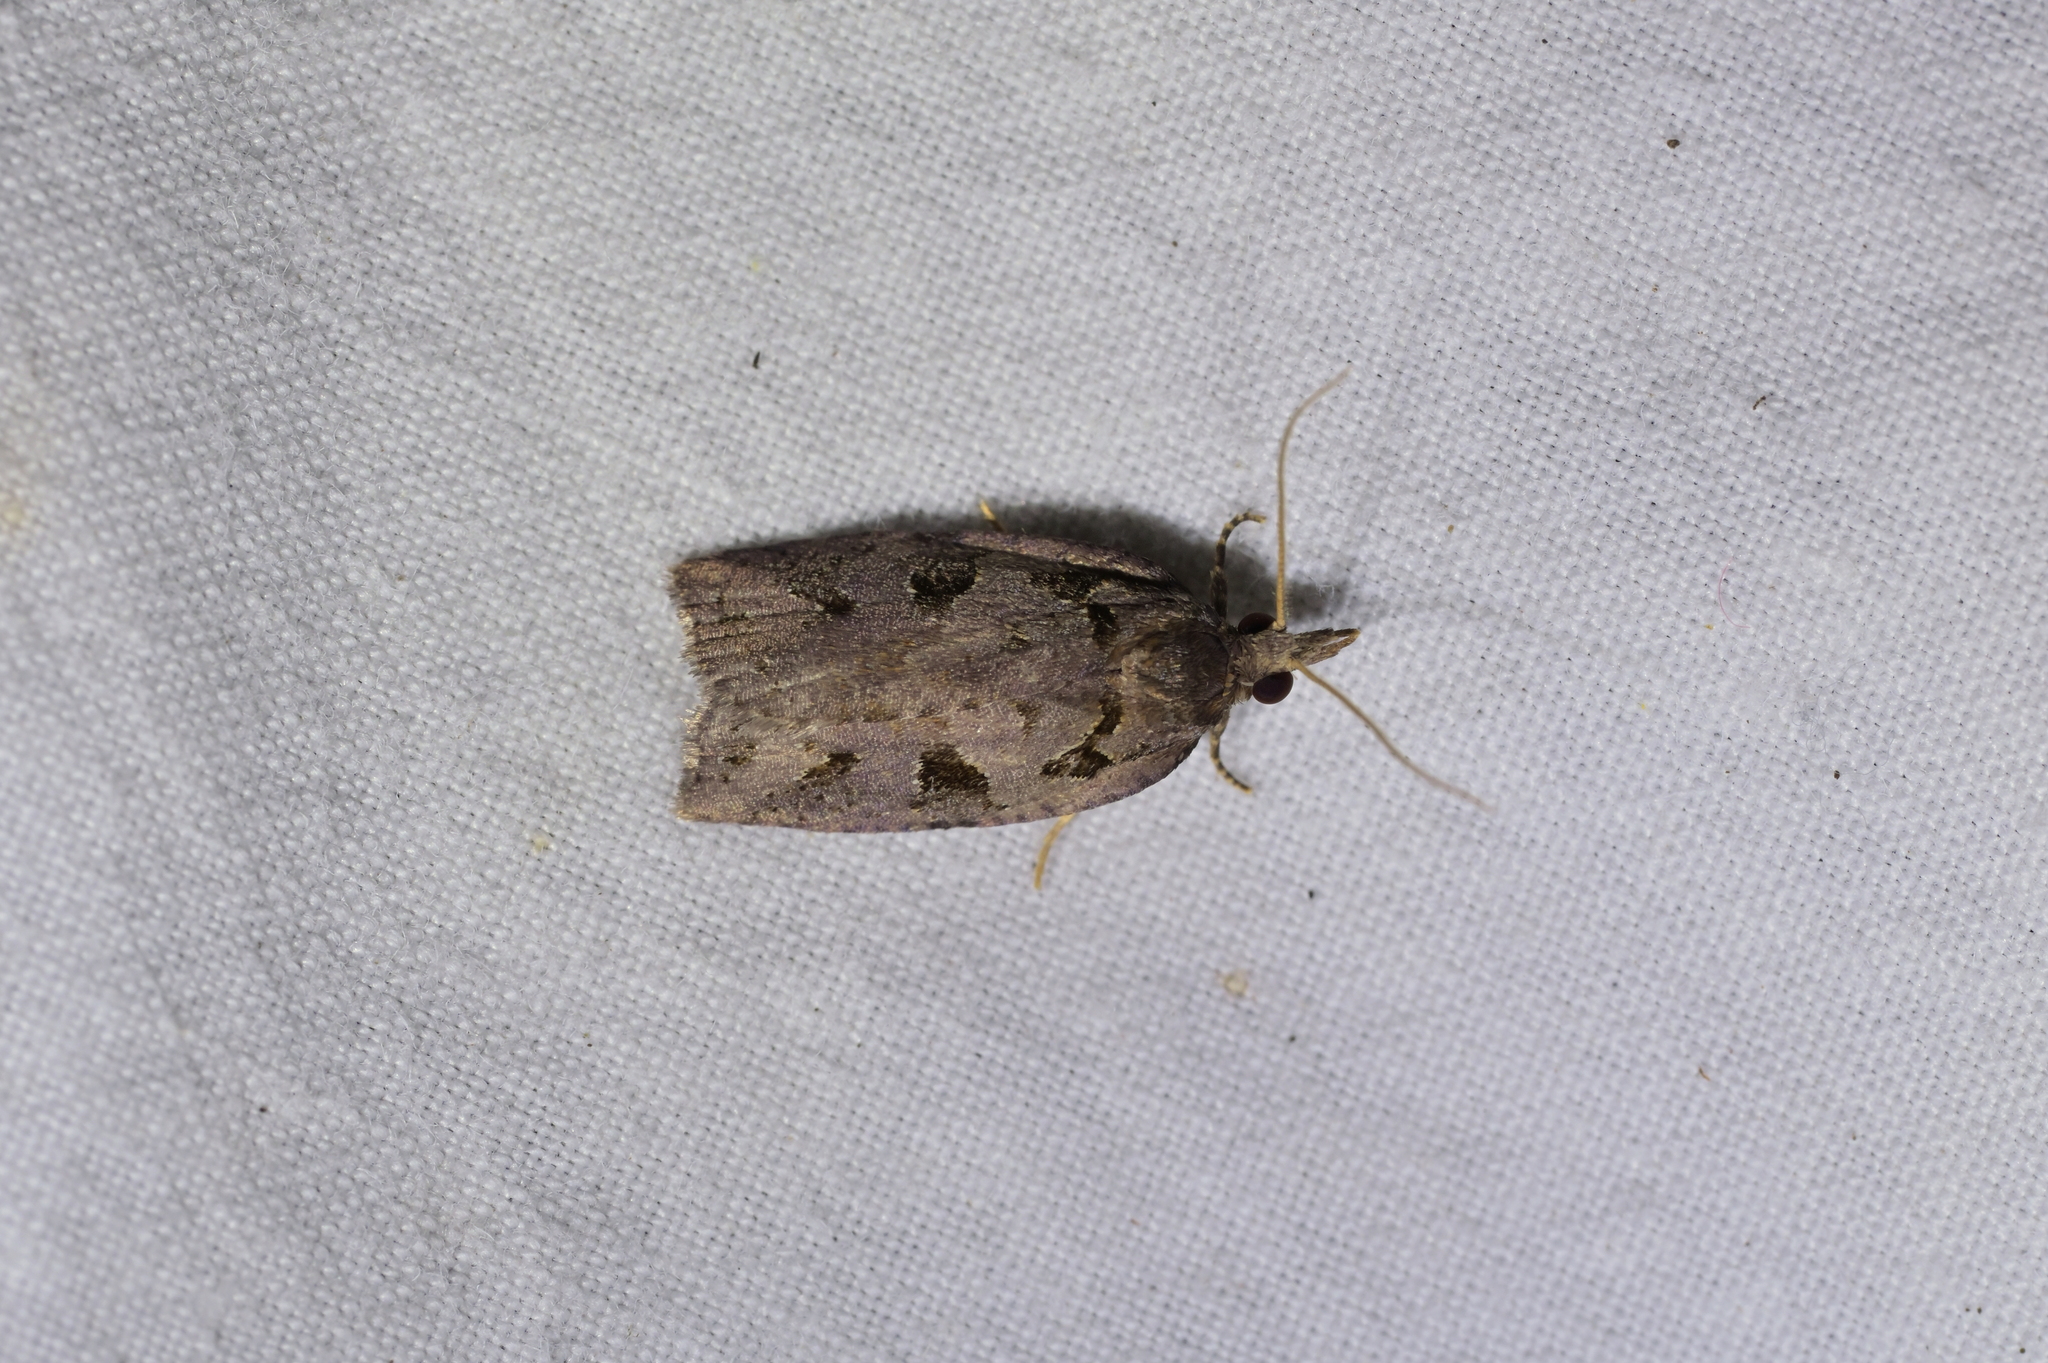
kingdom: Animalia
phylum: Arthropoda
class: Insecta
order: Lepidoptera
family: Tortricidae
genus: Ctenopseustis
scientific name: Ctenopseustis fraterna
